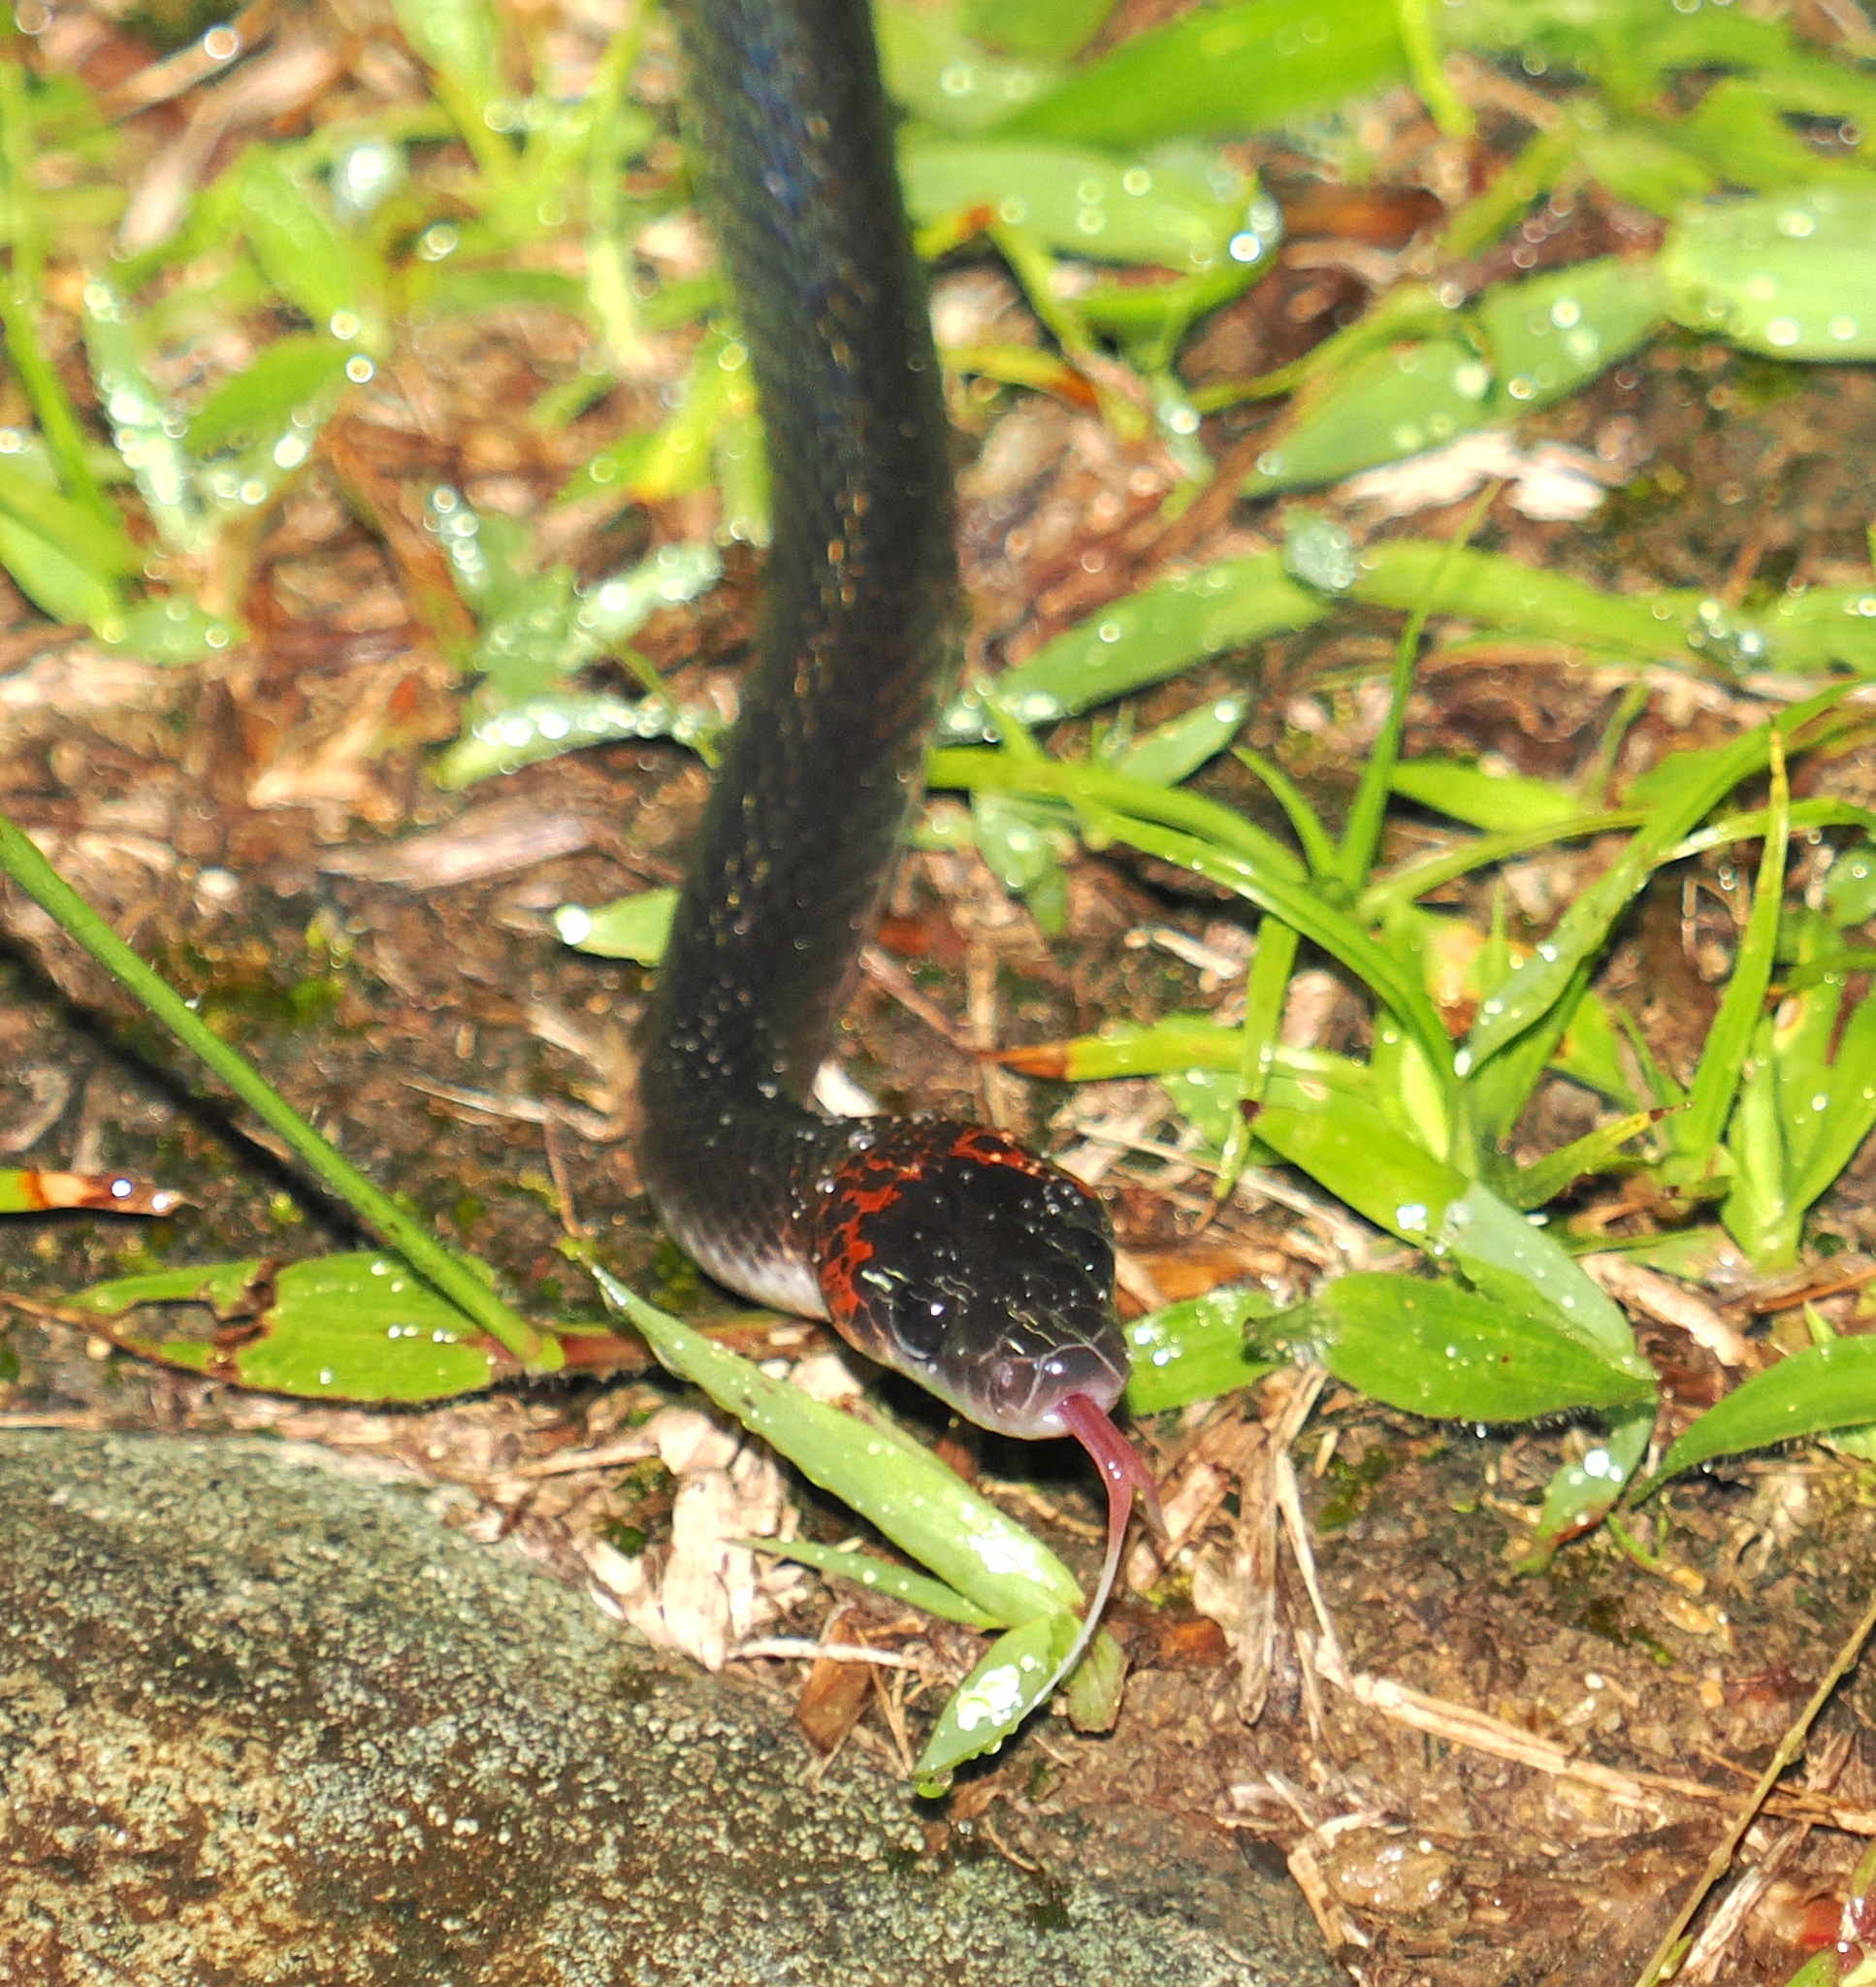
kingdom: Animalia
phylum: Chordata
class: Squamata
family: Colubridae
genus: Oxyrhopus
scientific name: Oxyrhopus petolarius
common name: Forest flame snake
